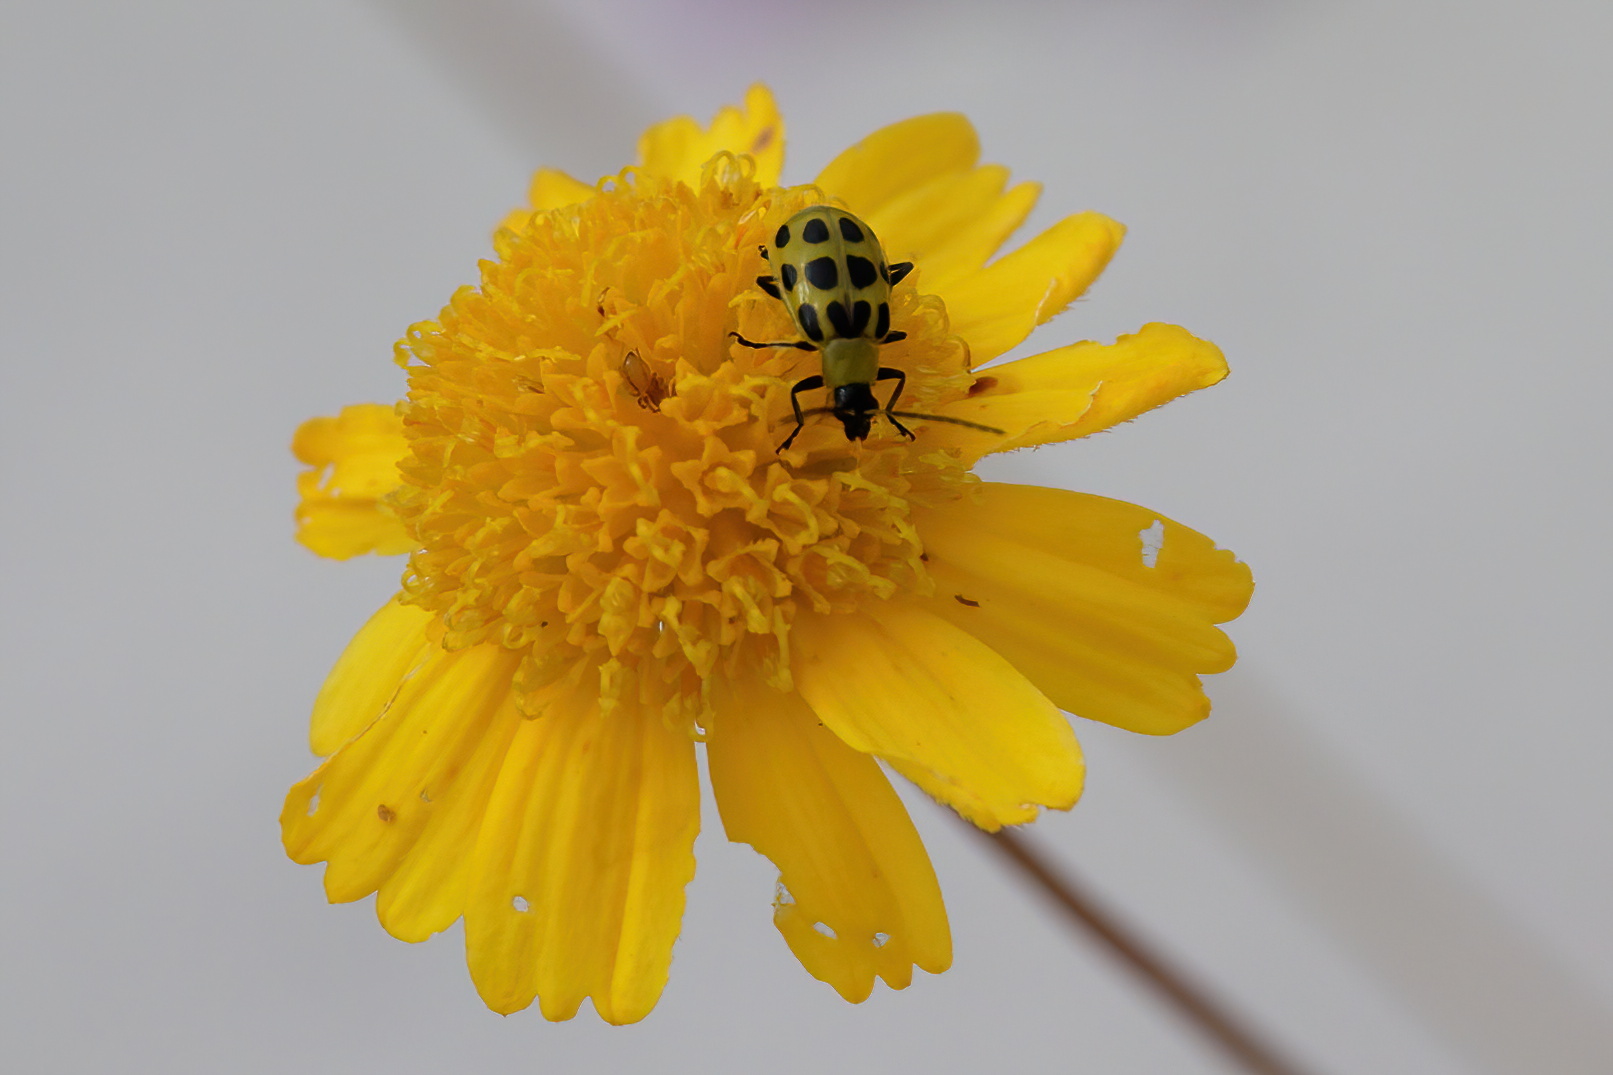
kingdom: Animalia
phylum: Arthropoda
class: Insecta
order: Coleoptera
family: Chrysomelidae
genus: Diabrotica
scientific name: Diabrotica undecimpunctata
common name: Spotted cucumber beetle
